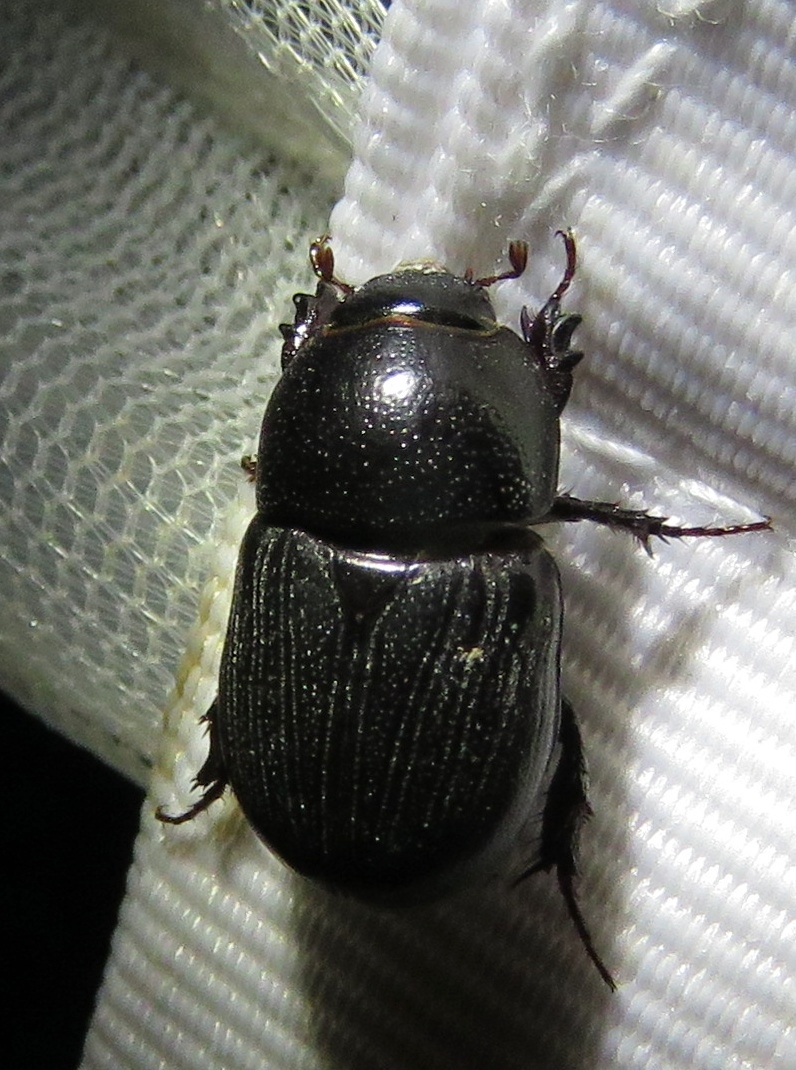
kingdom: Animalia
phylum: Arthropoda
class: Insecta
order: Coleoptera
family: Scarabaeidae
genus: Euetheola
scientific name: Euetheola humilis
